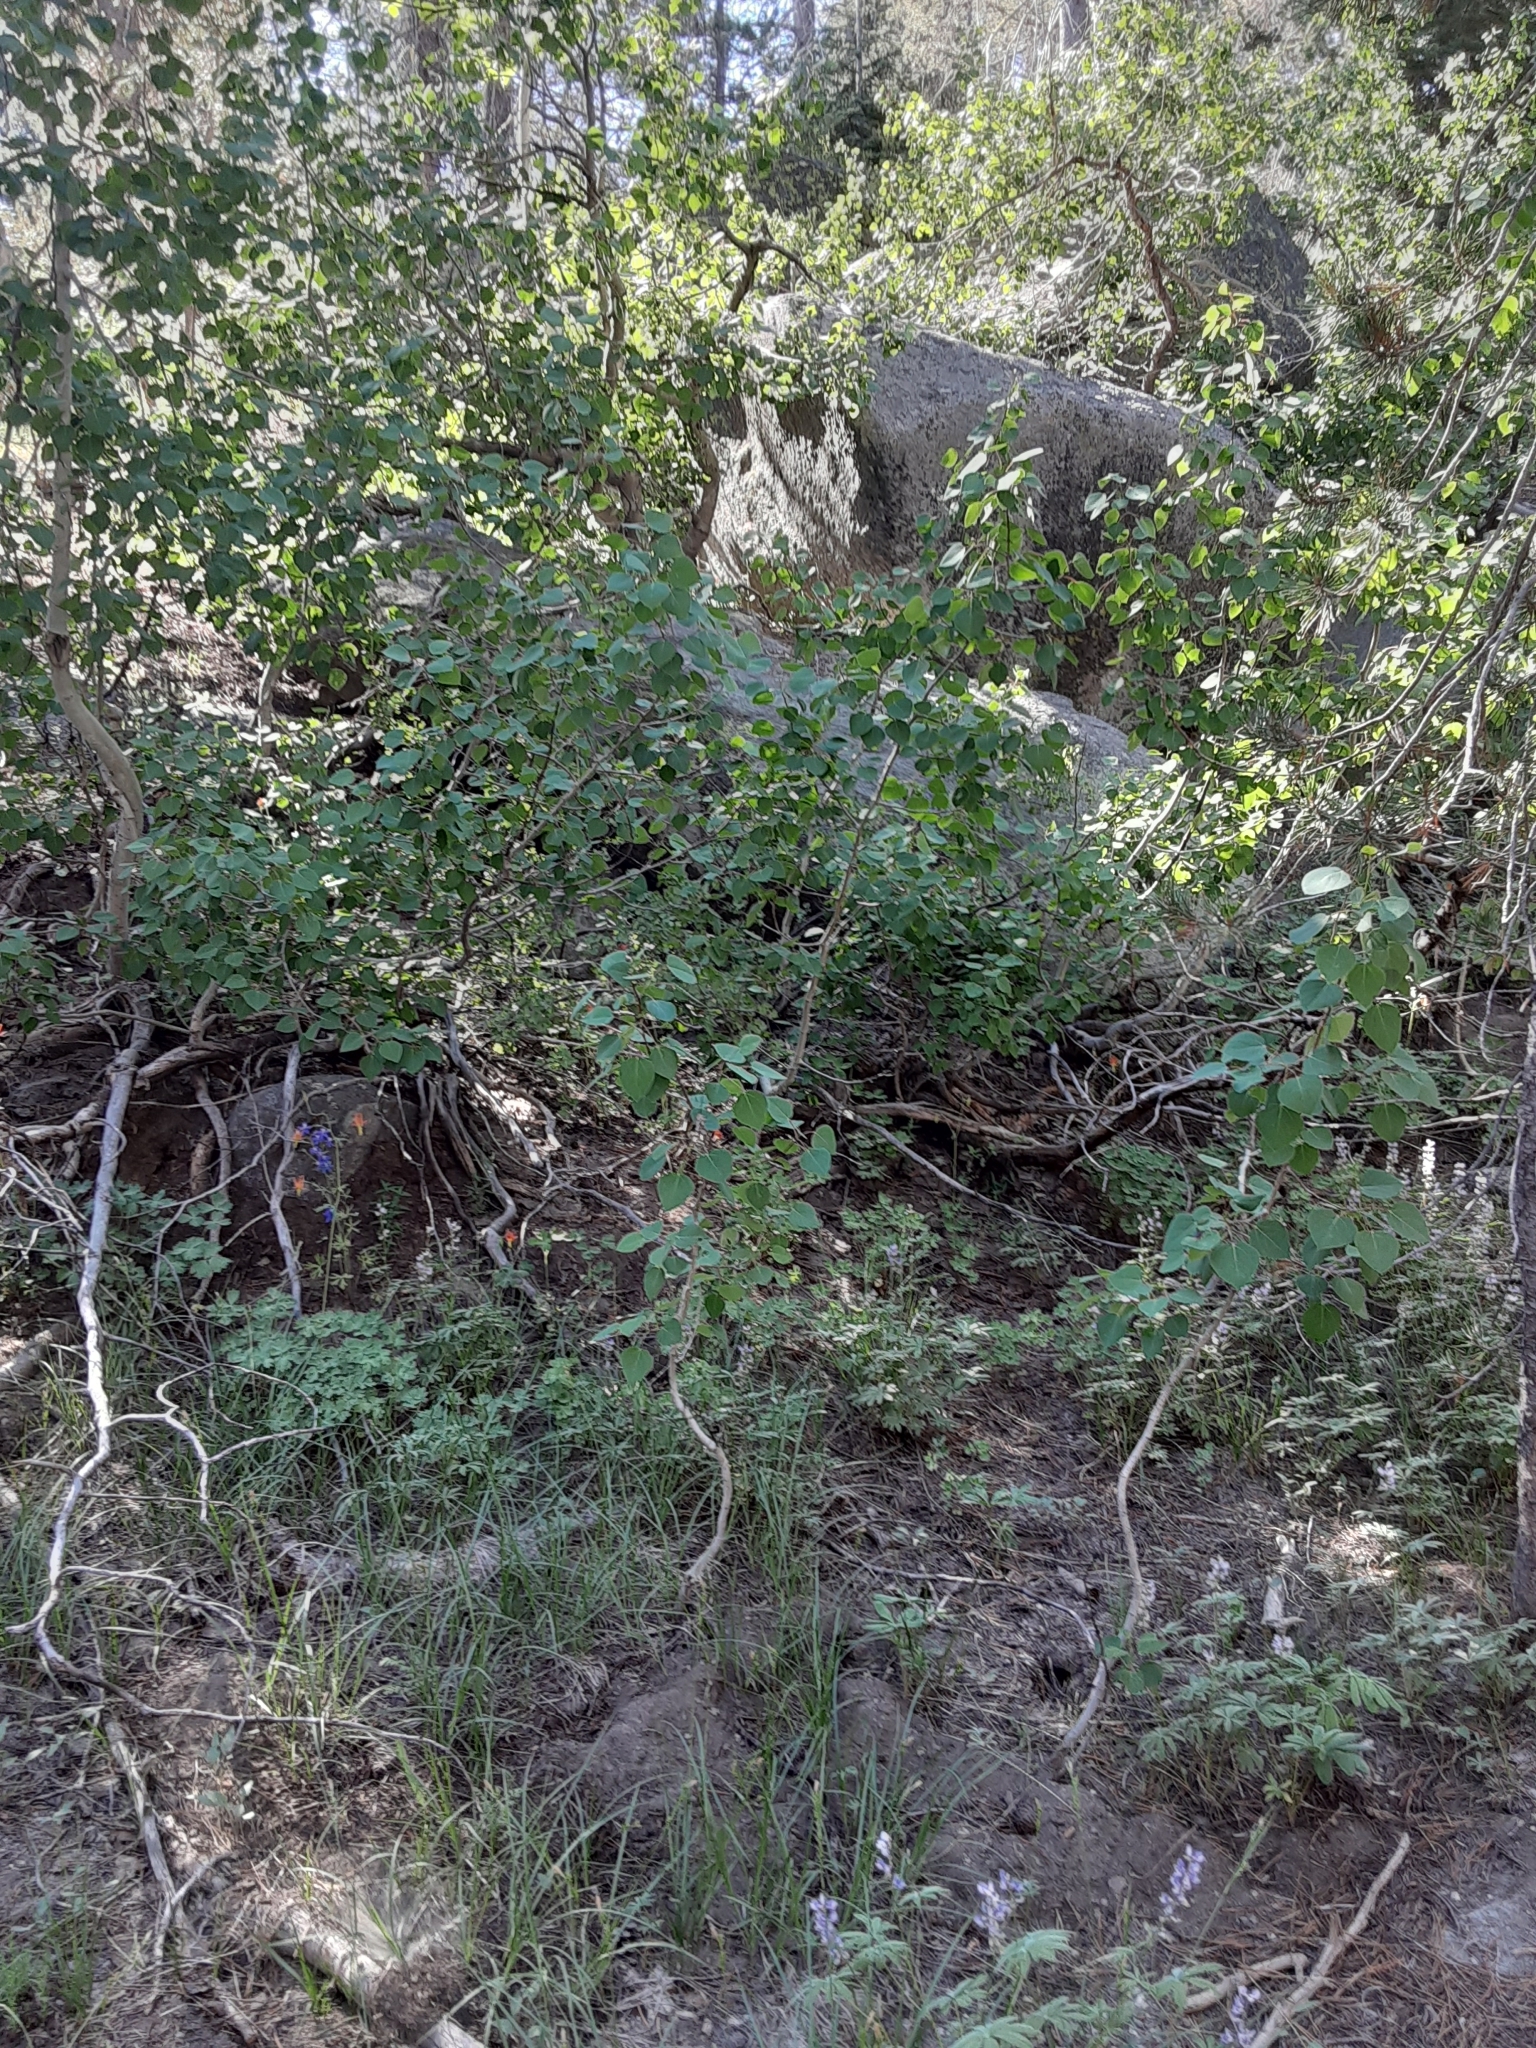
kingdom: Plantae
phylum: Tracheophyta
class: Magnoliopsida
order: Malpighiales
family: Salicaceae
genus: Populus
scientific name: Populus tremuloides
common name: Quaking aspen
